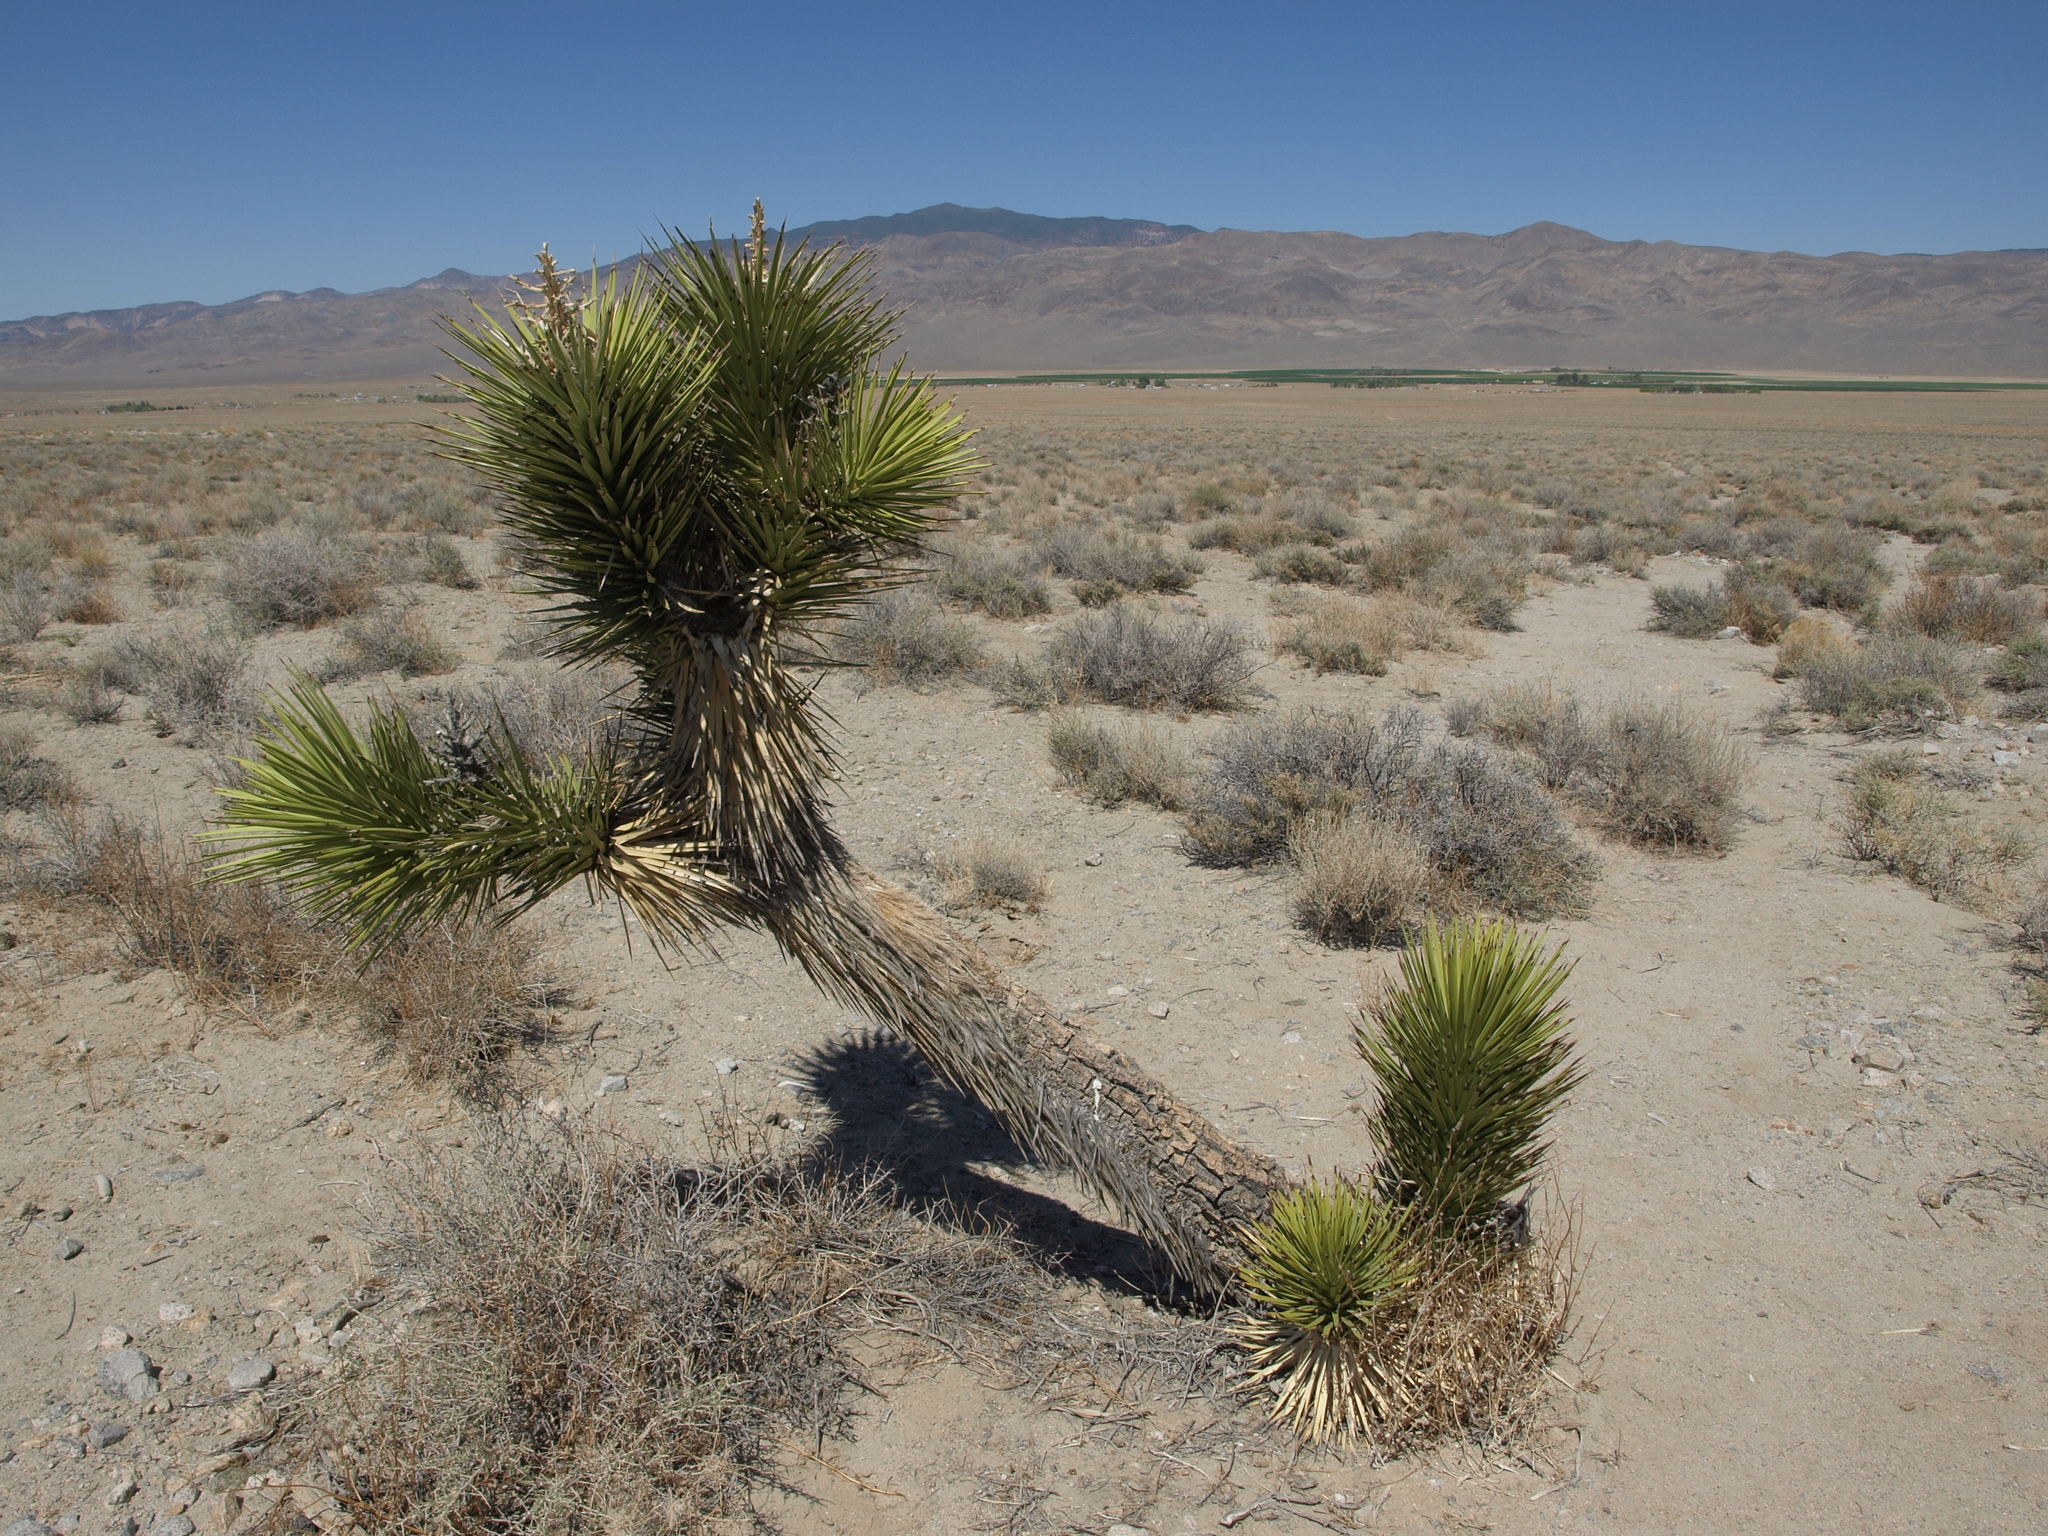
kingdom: Plantae
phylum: Tracheophyta
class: Liliopsida
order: Asparagales
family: Asparagaceae
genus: Yucca
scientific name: Yucca brevifolia
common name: Joshua tree
